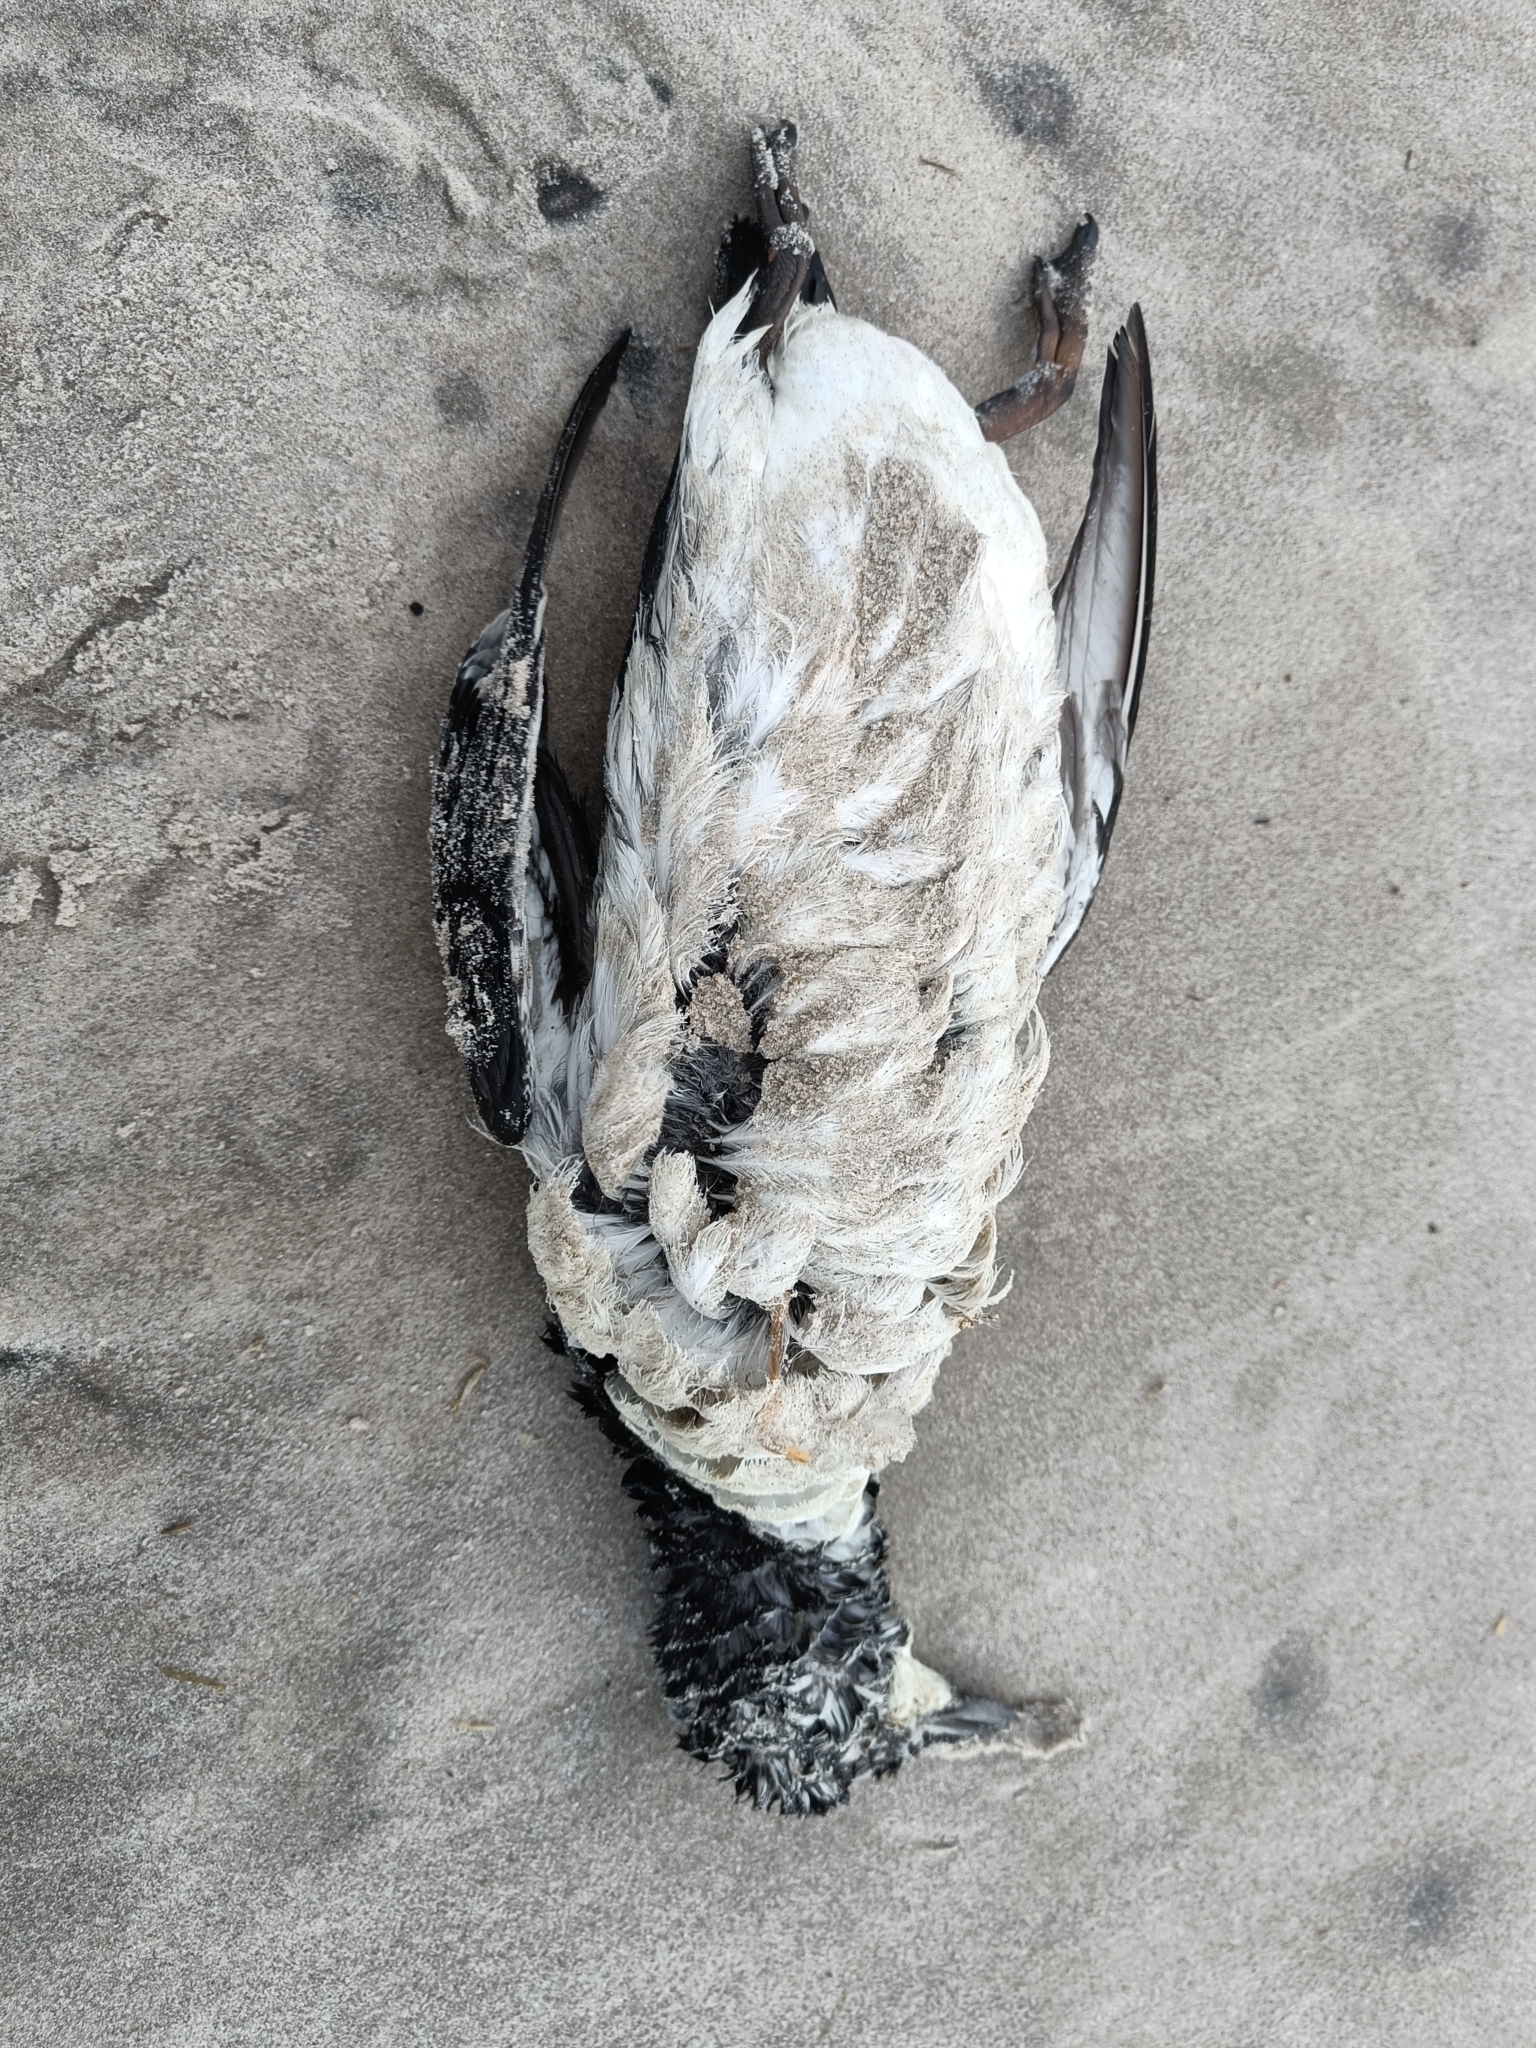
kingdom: Animalia
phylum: Chordata
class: Aves
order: Charadriiformes
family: Alcidae
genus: Uria
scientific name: Uria aalge
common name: Common murre
